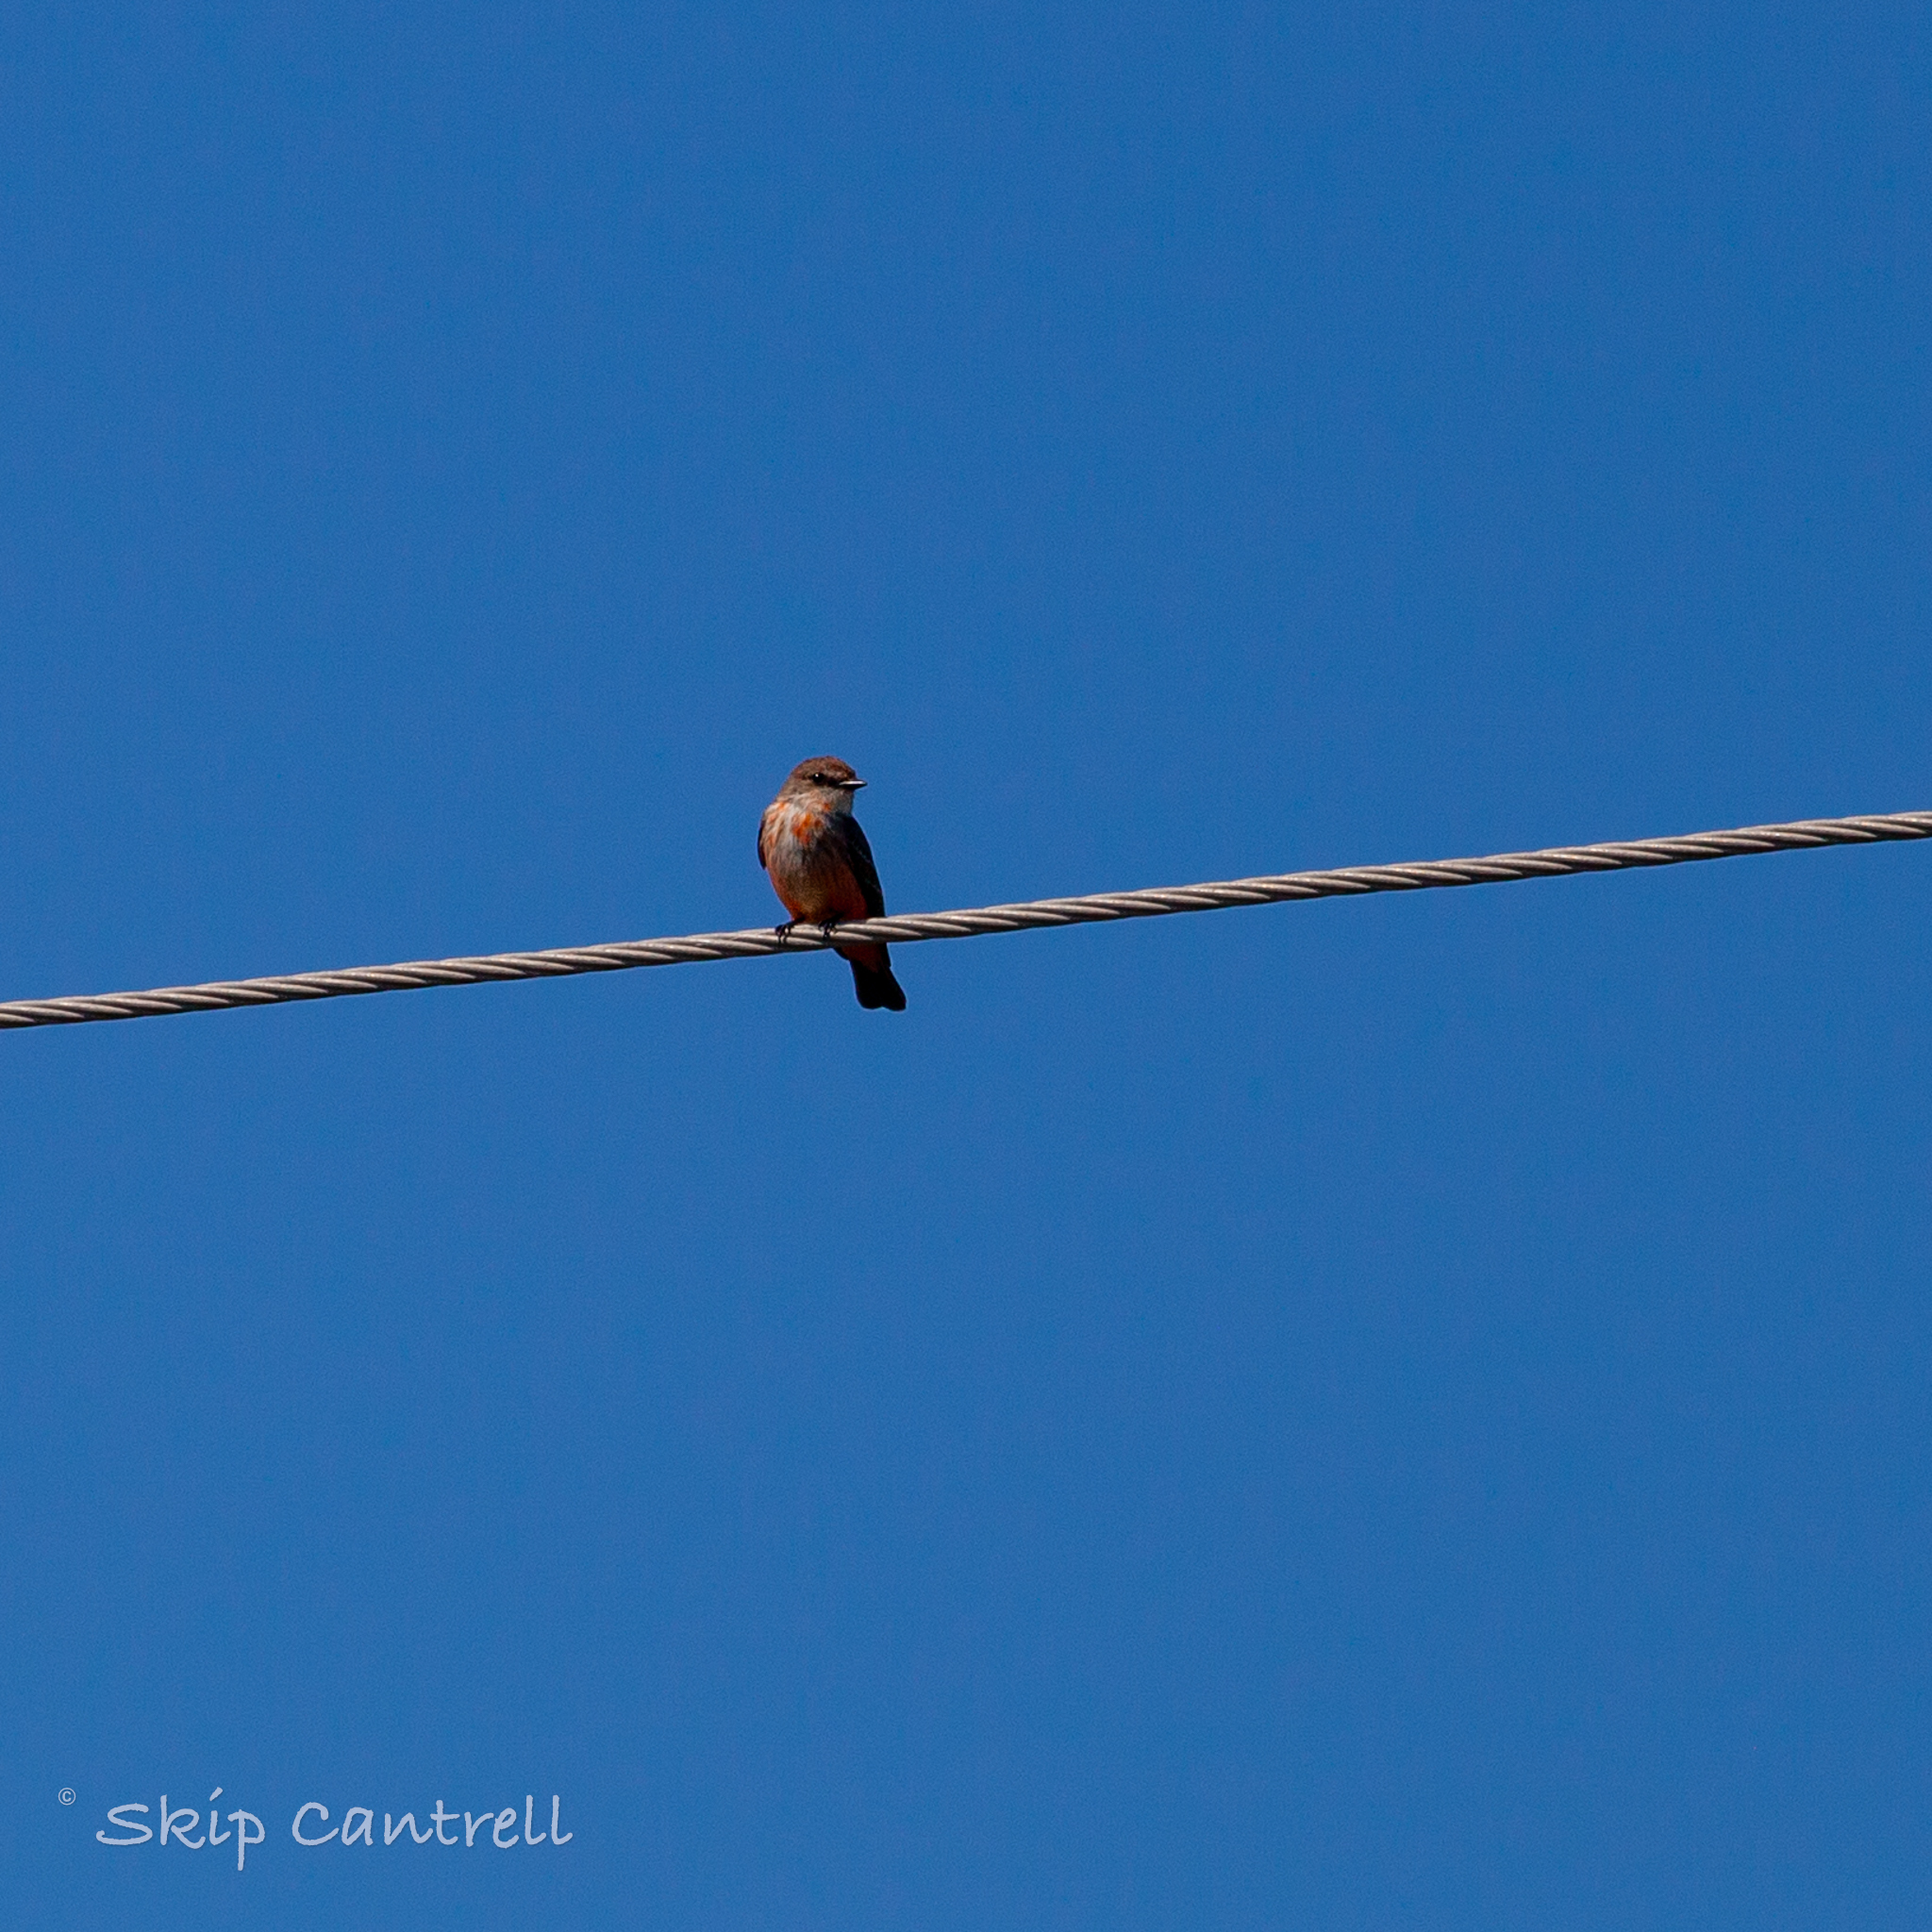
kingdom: Animalia
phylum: Chordata
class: Aves
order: Passeriformes
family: Tyrannidae
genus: Pyrocephalus
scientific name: Pyrocephalus rubinus
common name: Vermilion flycatcher
